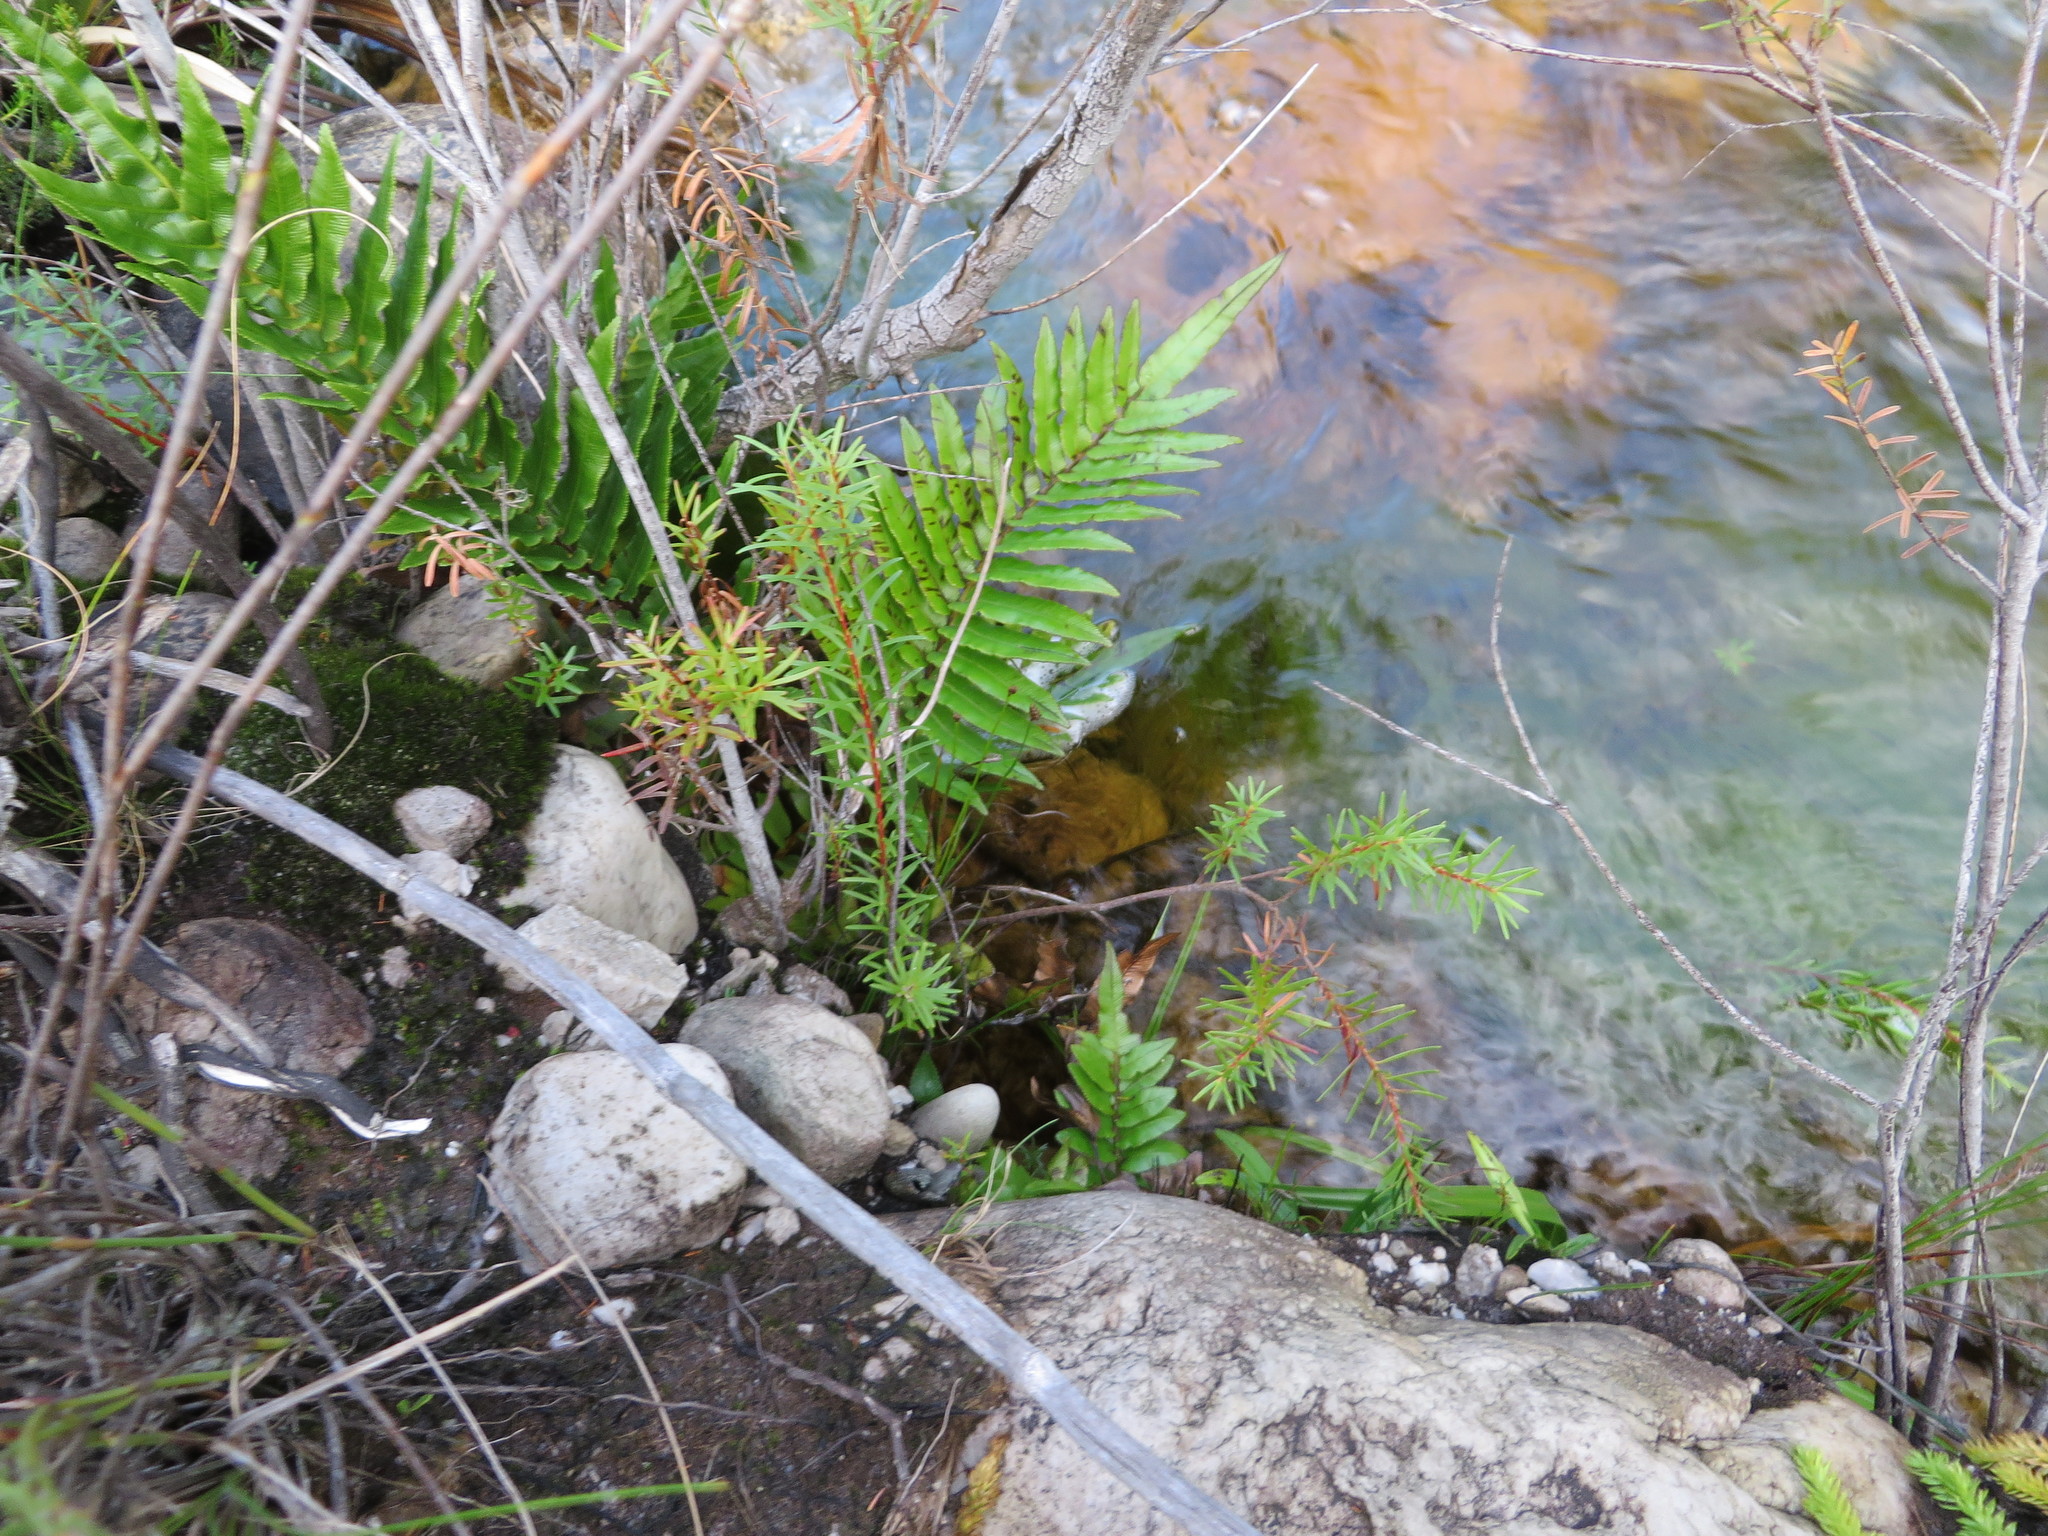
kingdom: Plantae
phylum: Tracheophyta
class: Polypodiopsida
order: Polypodiales
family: Blechnaceae
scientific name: Blechnaceae
